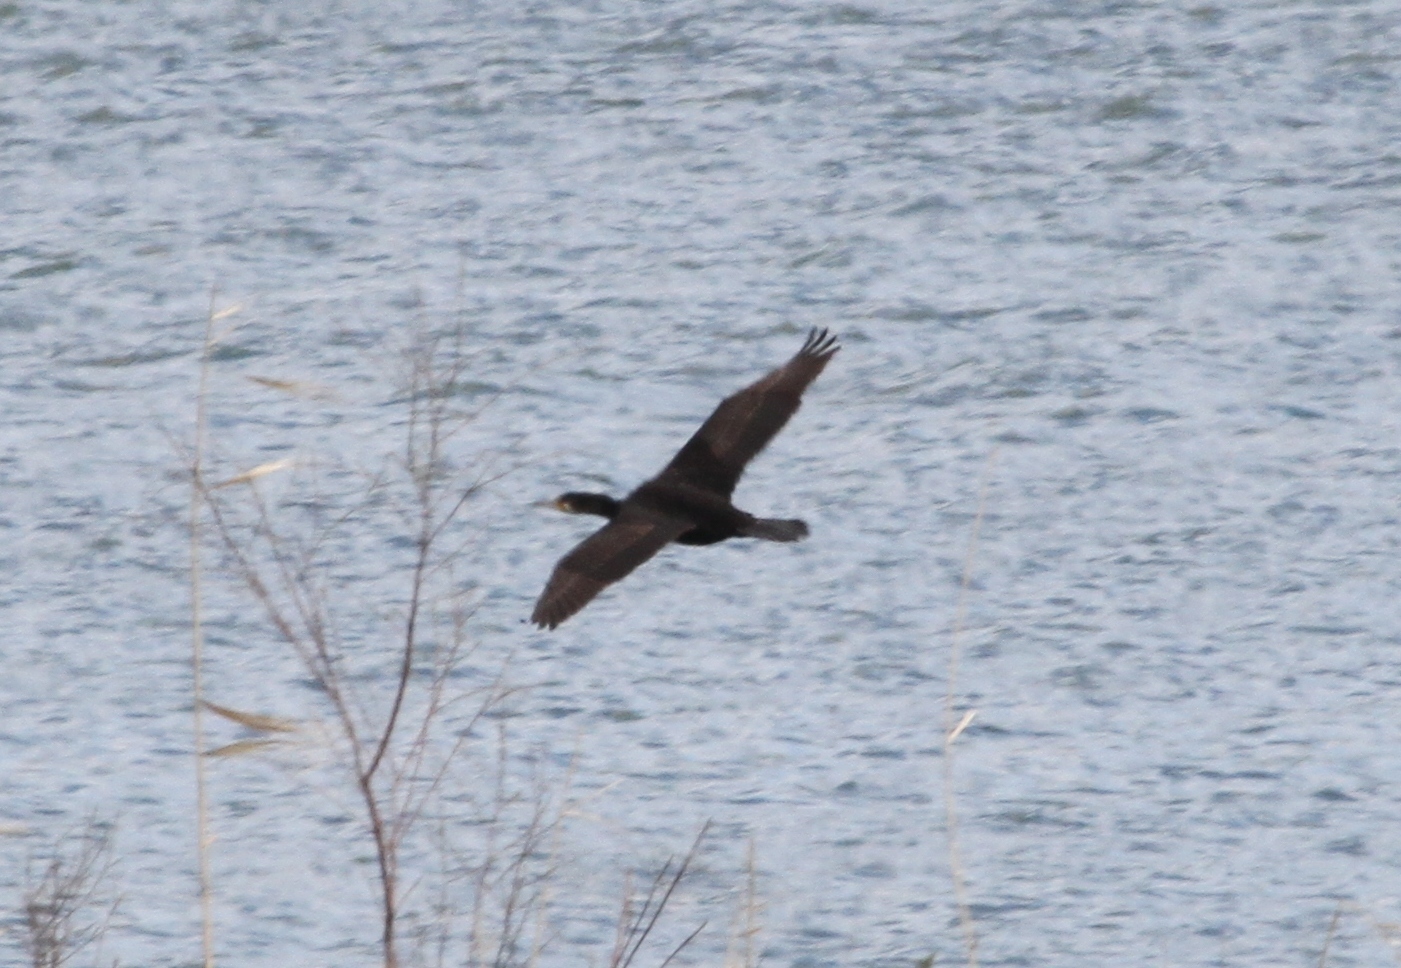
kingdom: Animalia
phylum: Chordata
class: Aves
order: Suliformes
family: Phalacrocoracidae
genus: Phalacrocorax
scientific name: Phalacrocorax carbo
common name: Great cormorant
